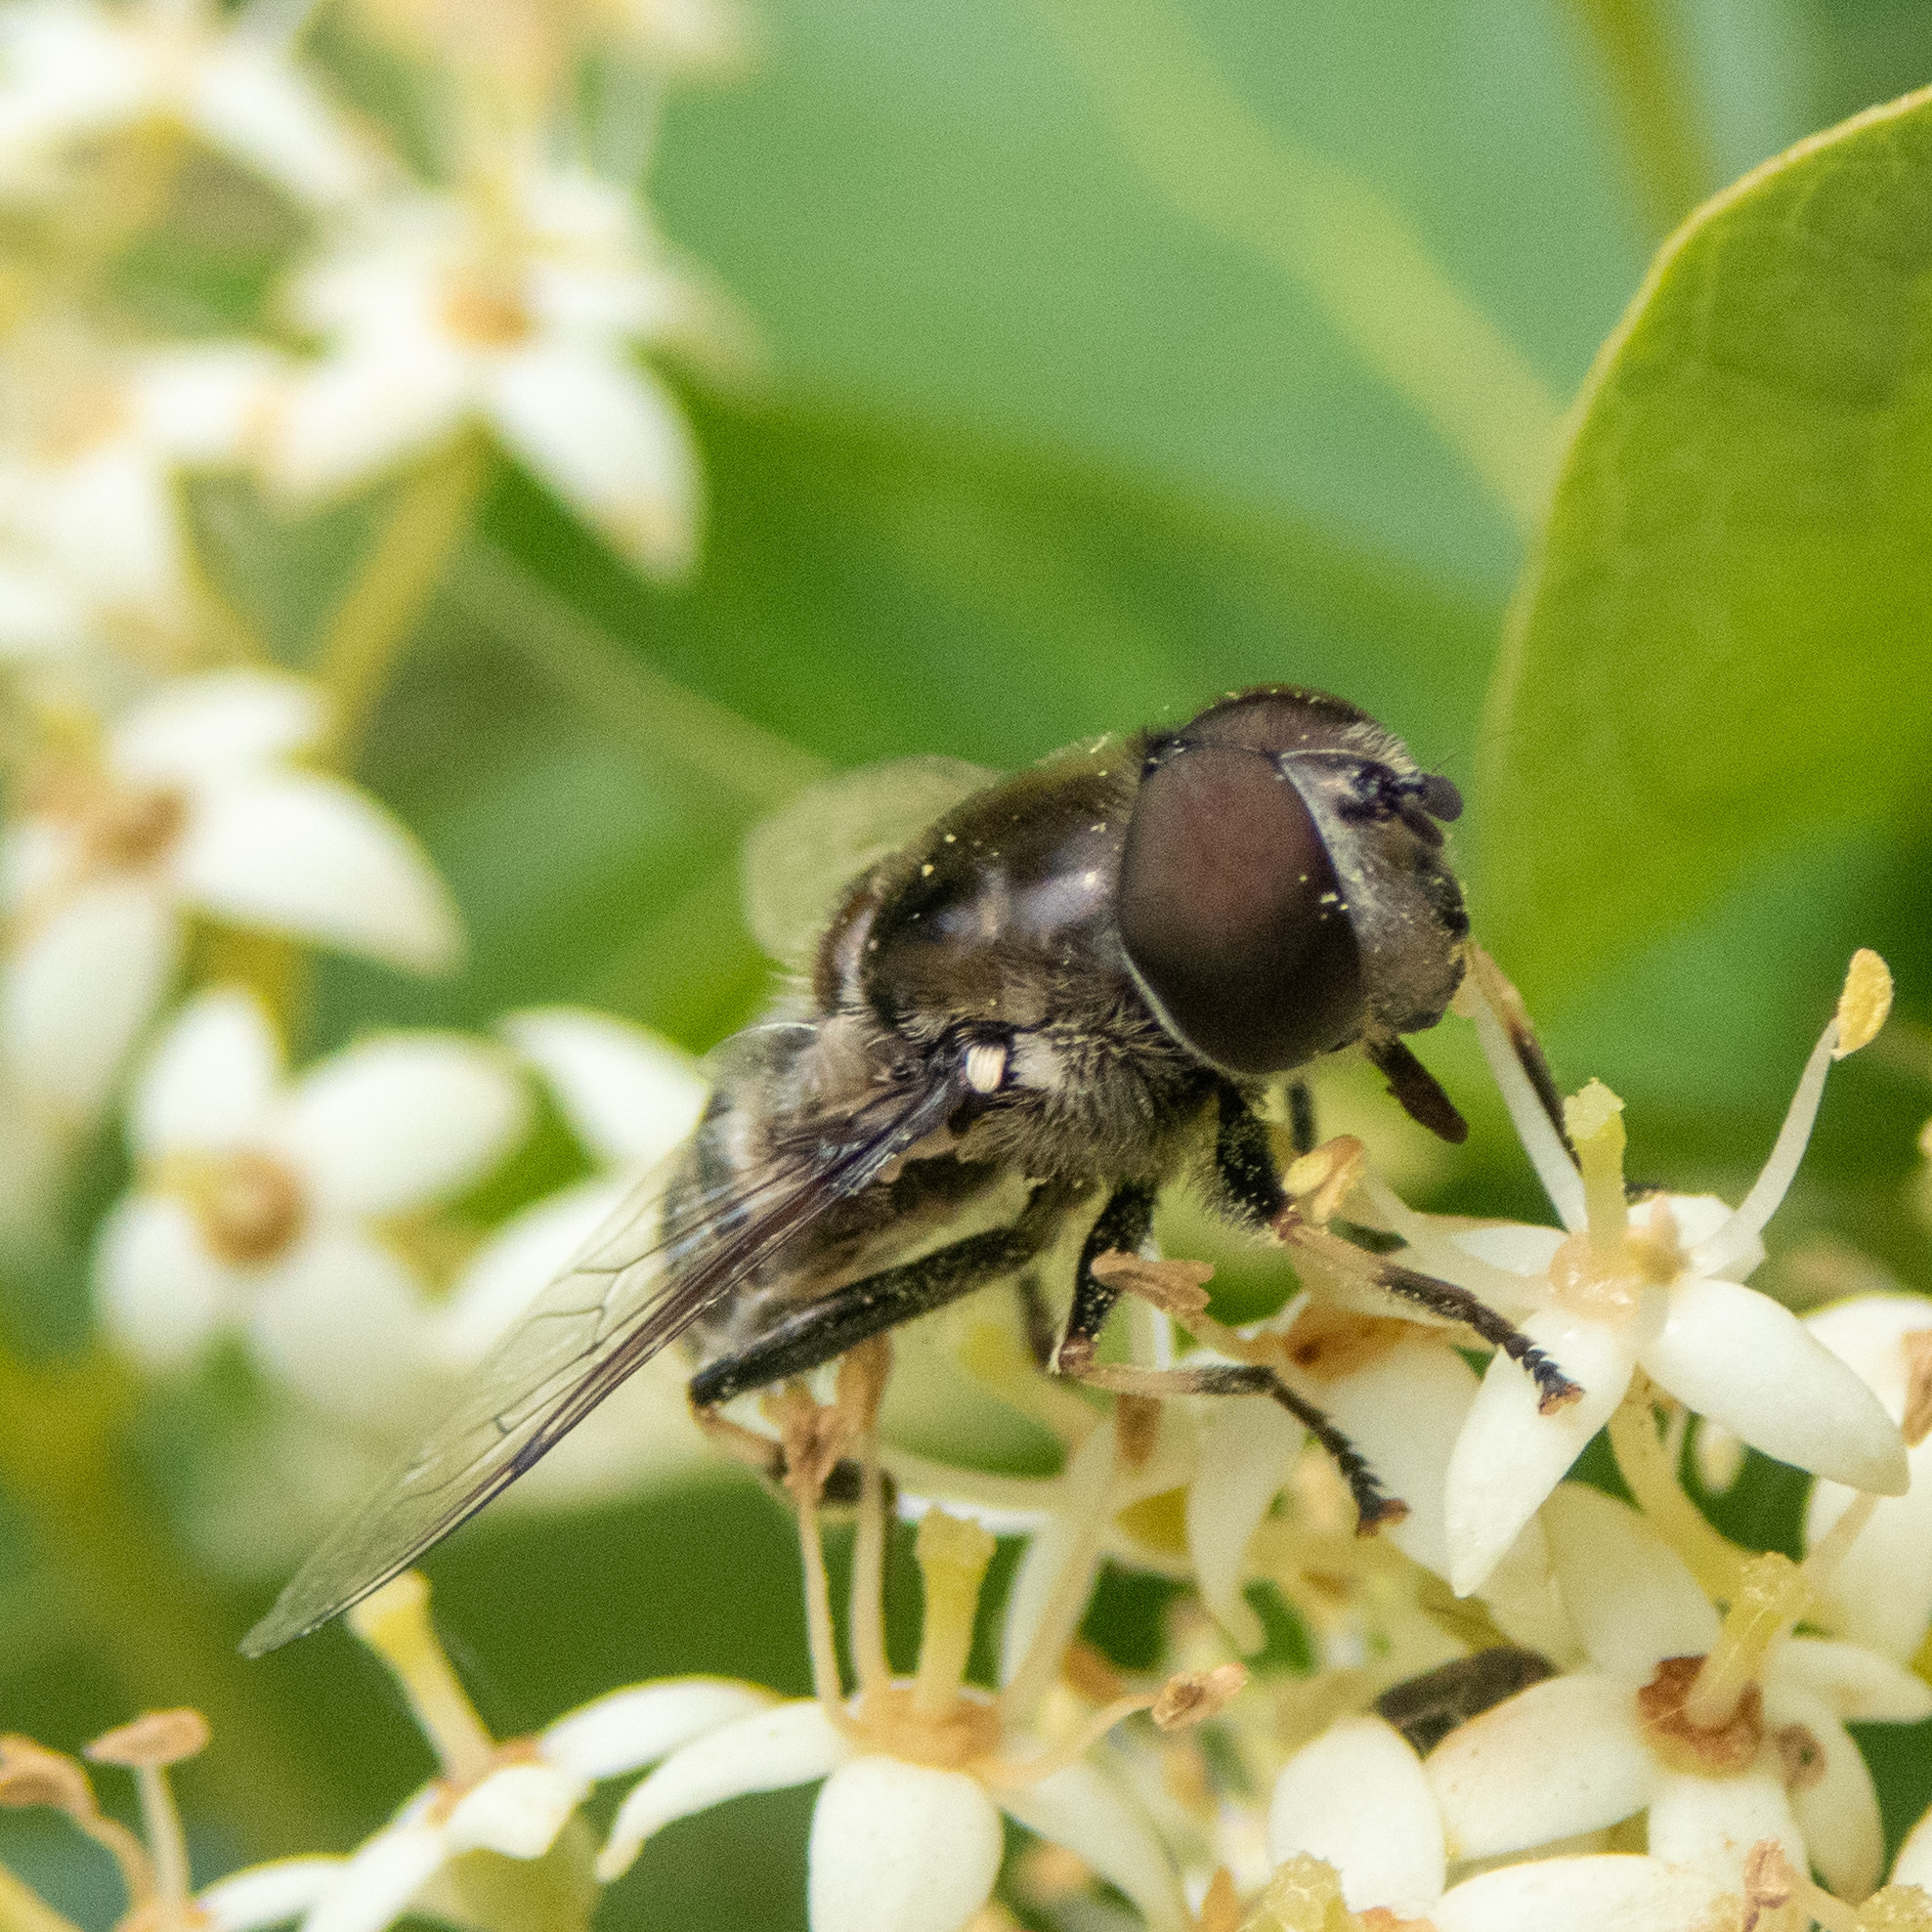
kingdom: Animalia
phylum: Arthropoda
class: Insecta
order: Diptera
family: Syrphidae
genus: Eristalis
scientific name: Eristalis dimidiata
